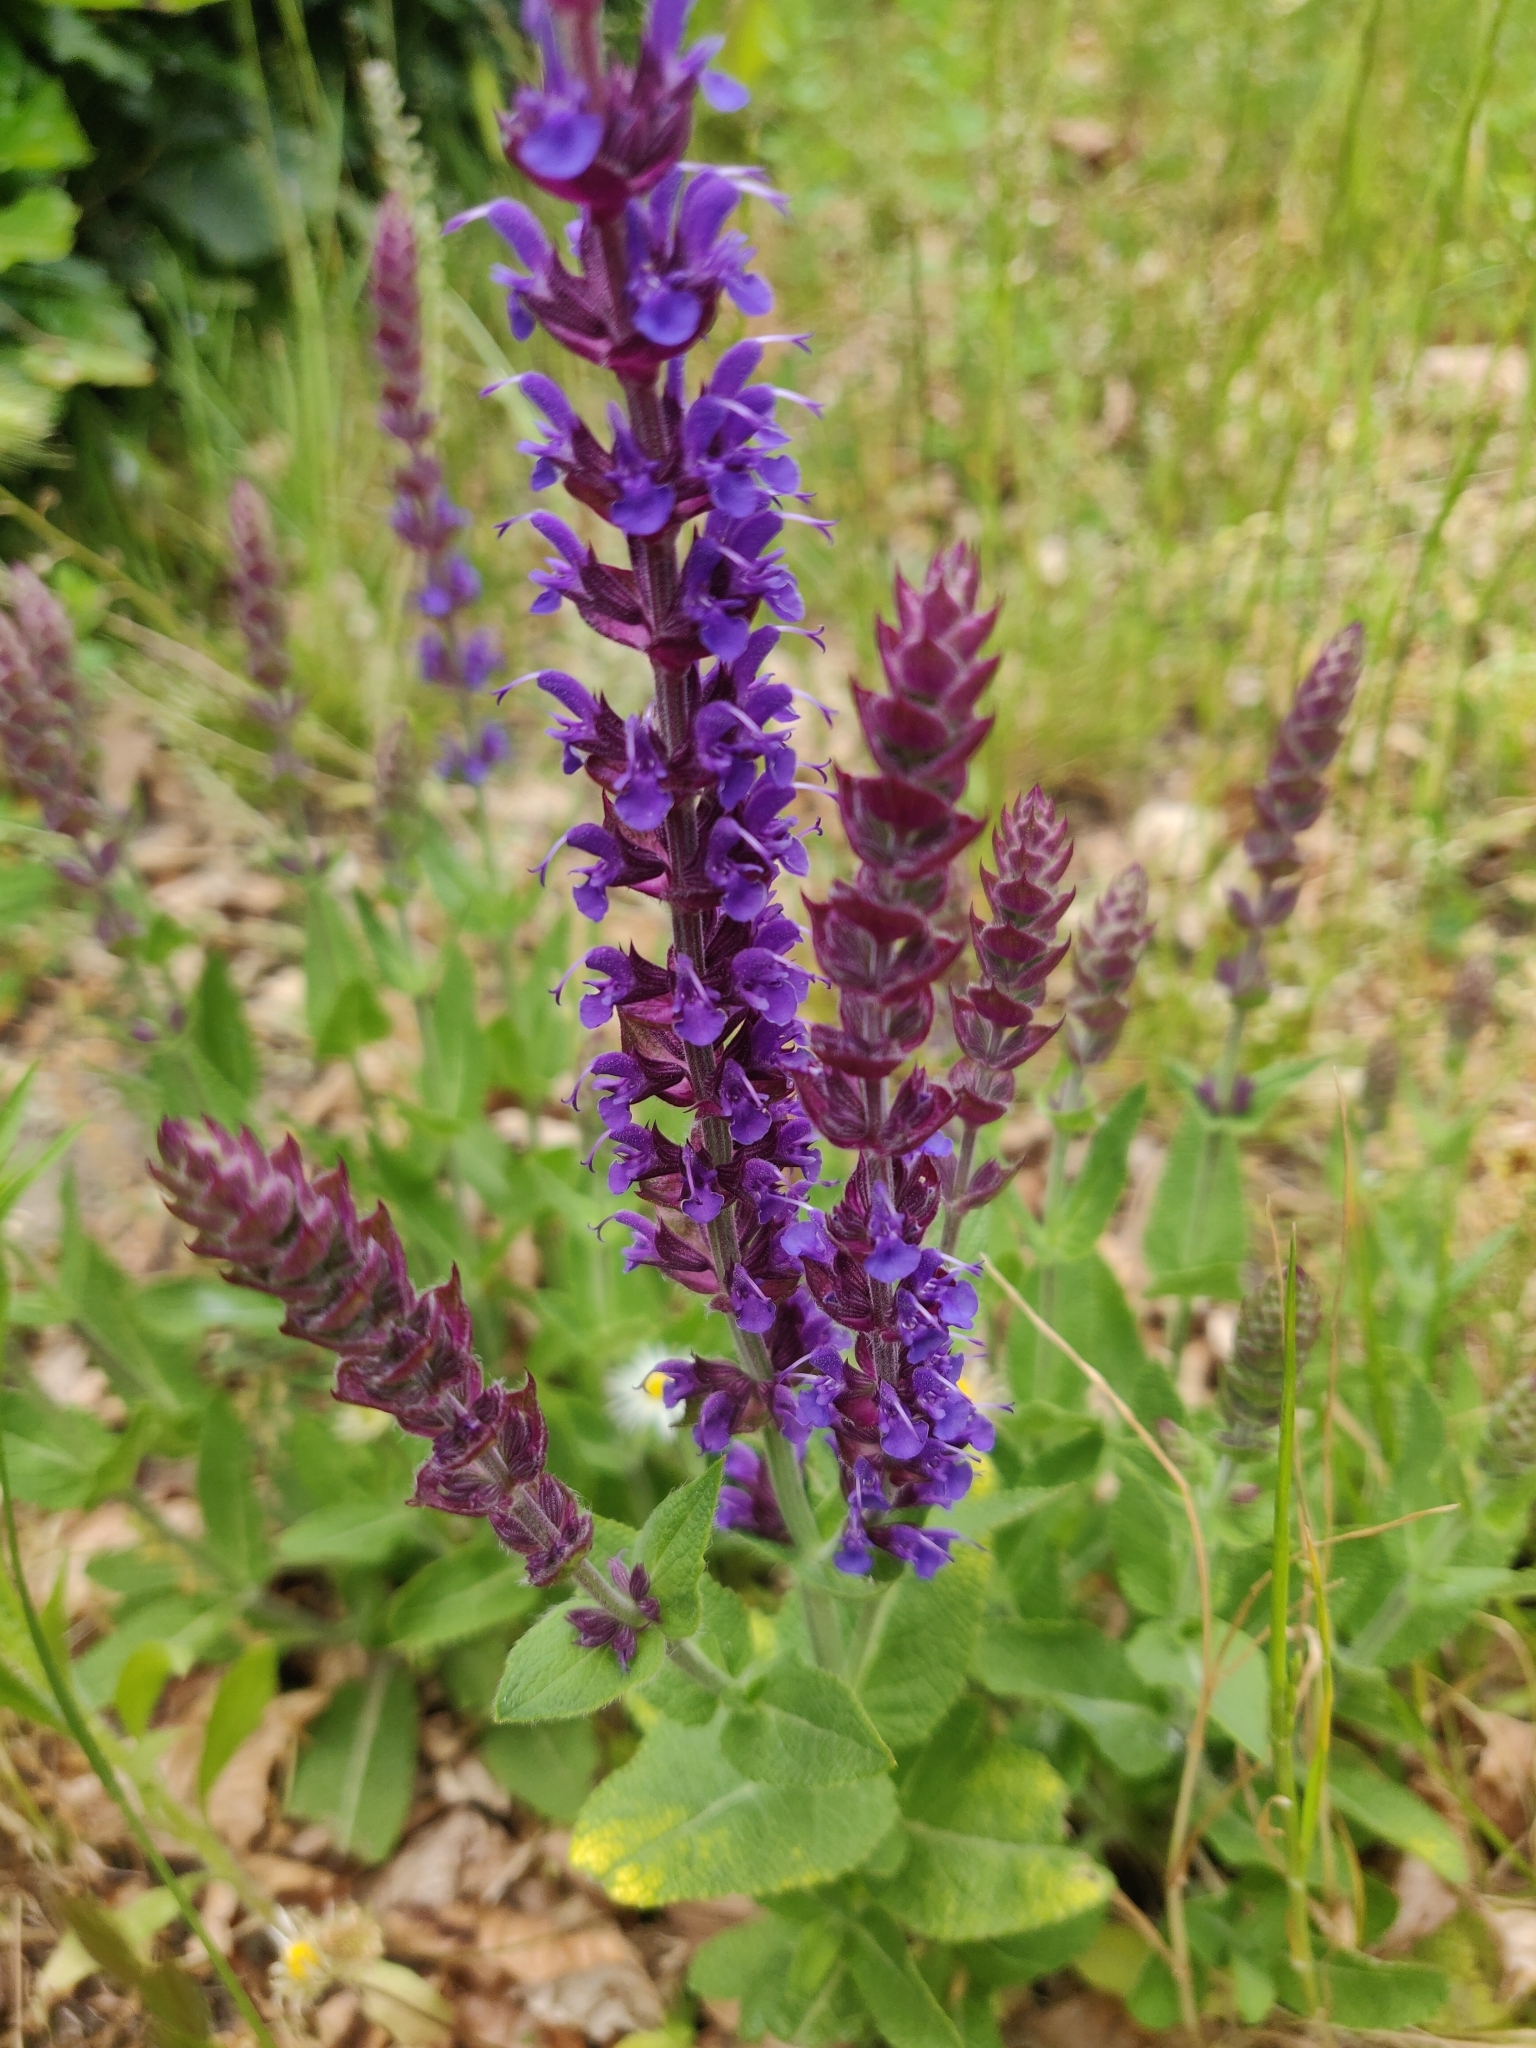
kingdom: Plantae
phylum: Tracheophyta
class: Magnoliopsida
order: Lamiales
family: Lamiaceae
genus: Salvia
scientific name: Salvia nemorosa
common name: Balkan clary
